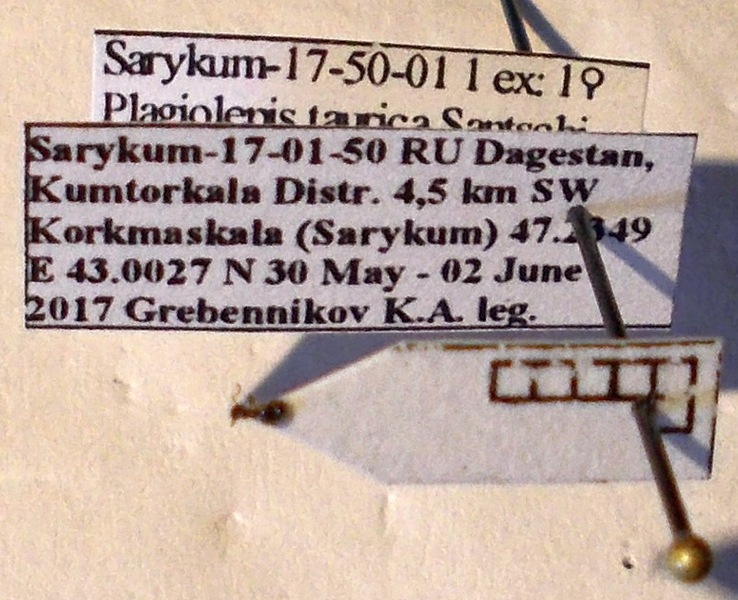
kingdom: Animalia
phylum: Arthropoda
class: Insecta
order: Hymenoptera
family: Formicidae
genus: Plagiolepis
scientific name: Plagiolepis pallescens
